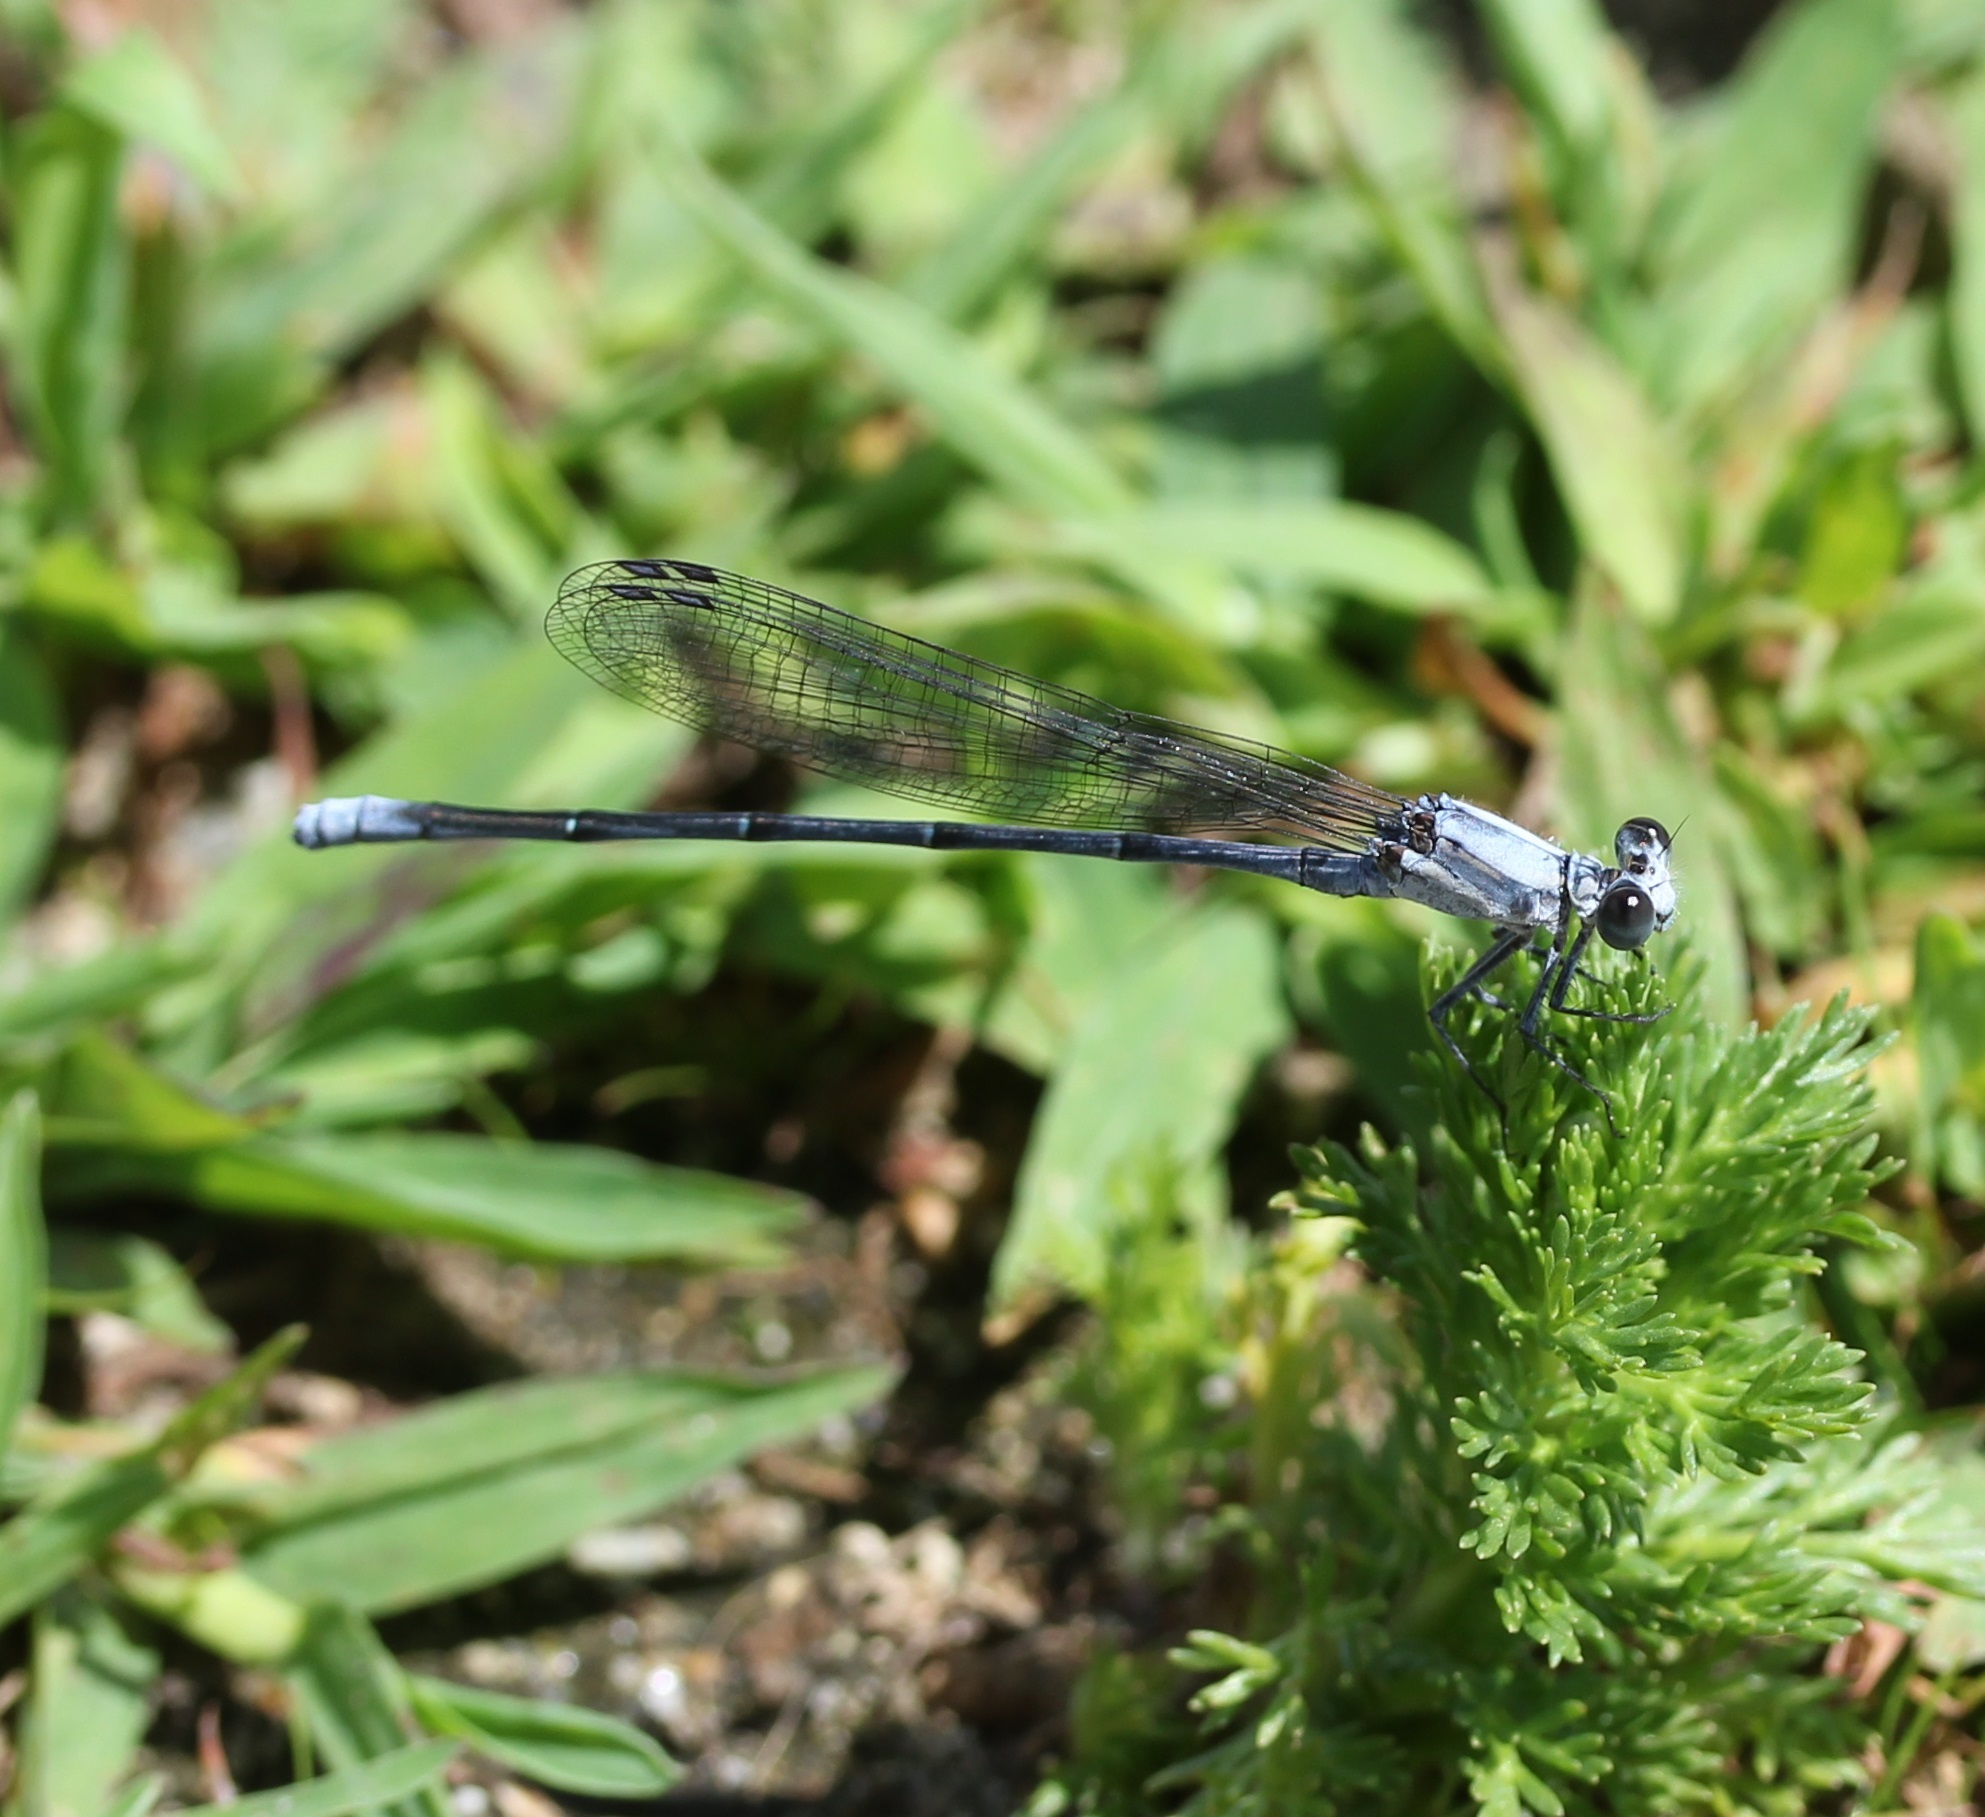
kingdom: Animalia
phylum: Arthropoda
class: Insecta
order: Odonata
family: Coenagrionidae
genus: Argia
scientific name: Argia moesta
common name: Powdered dancer
